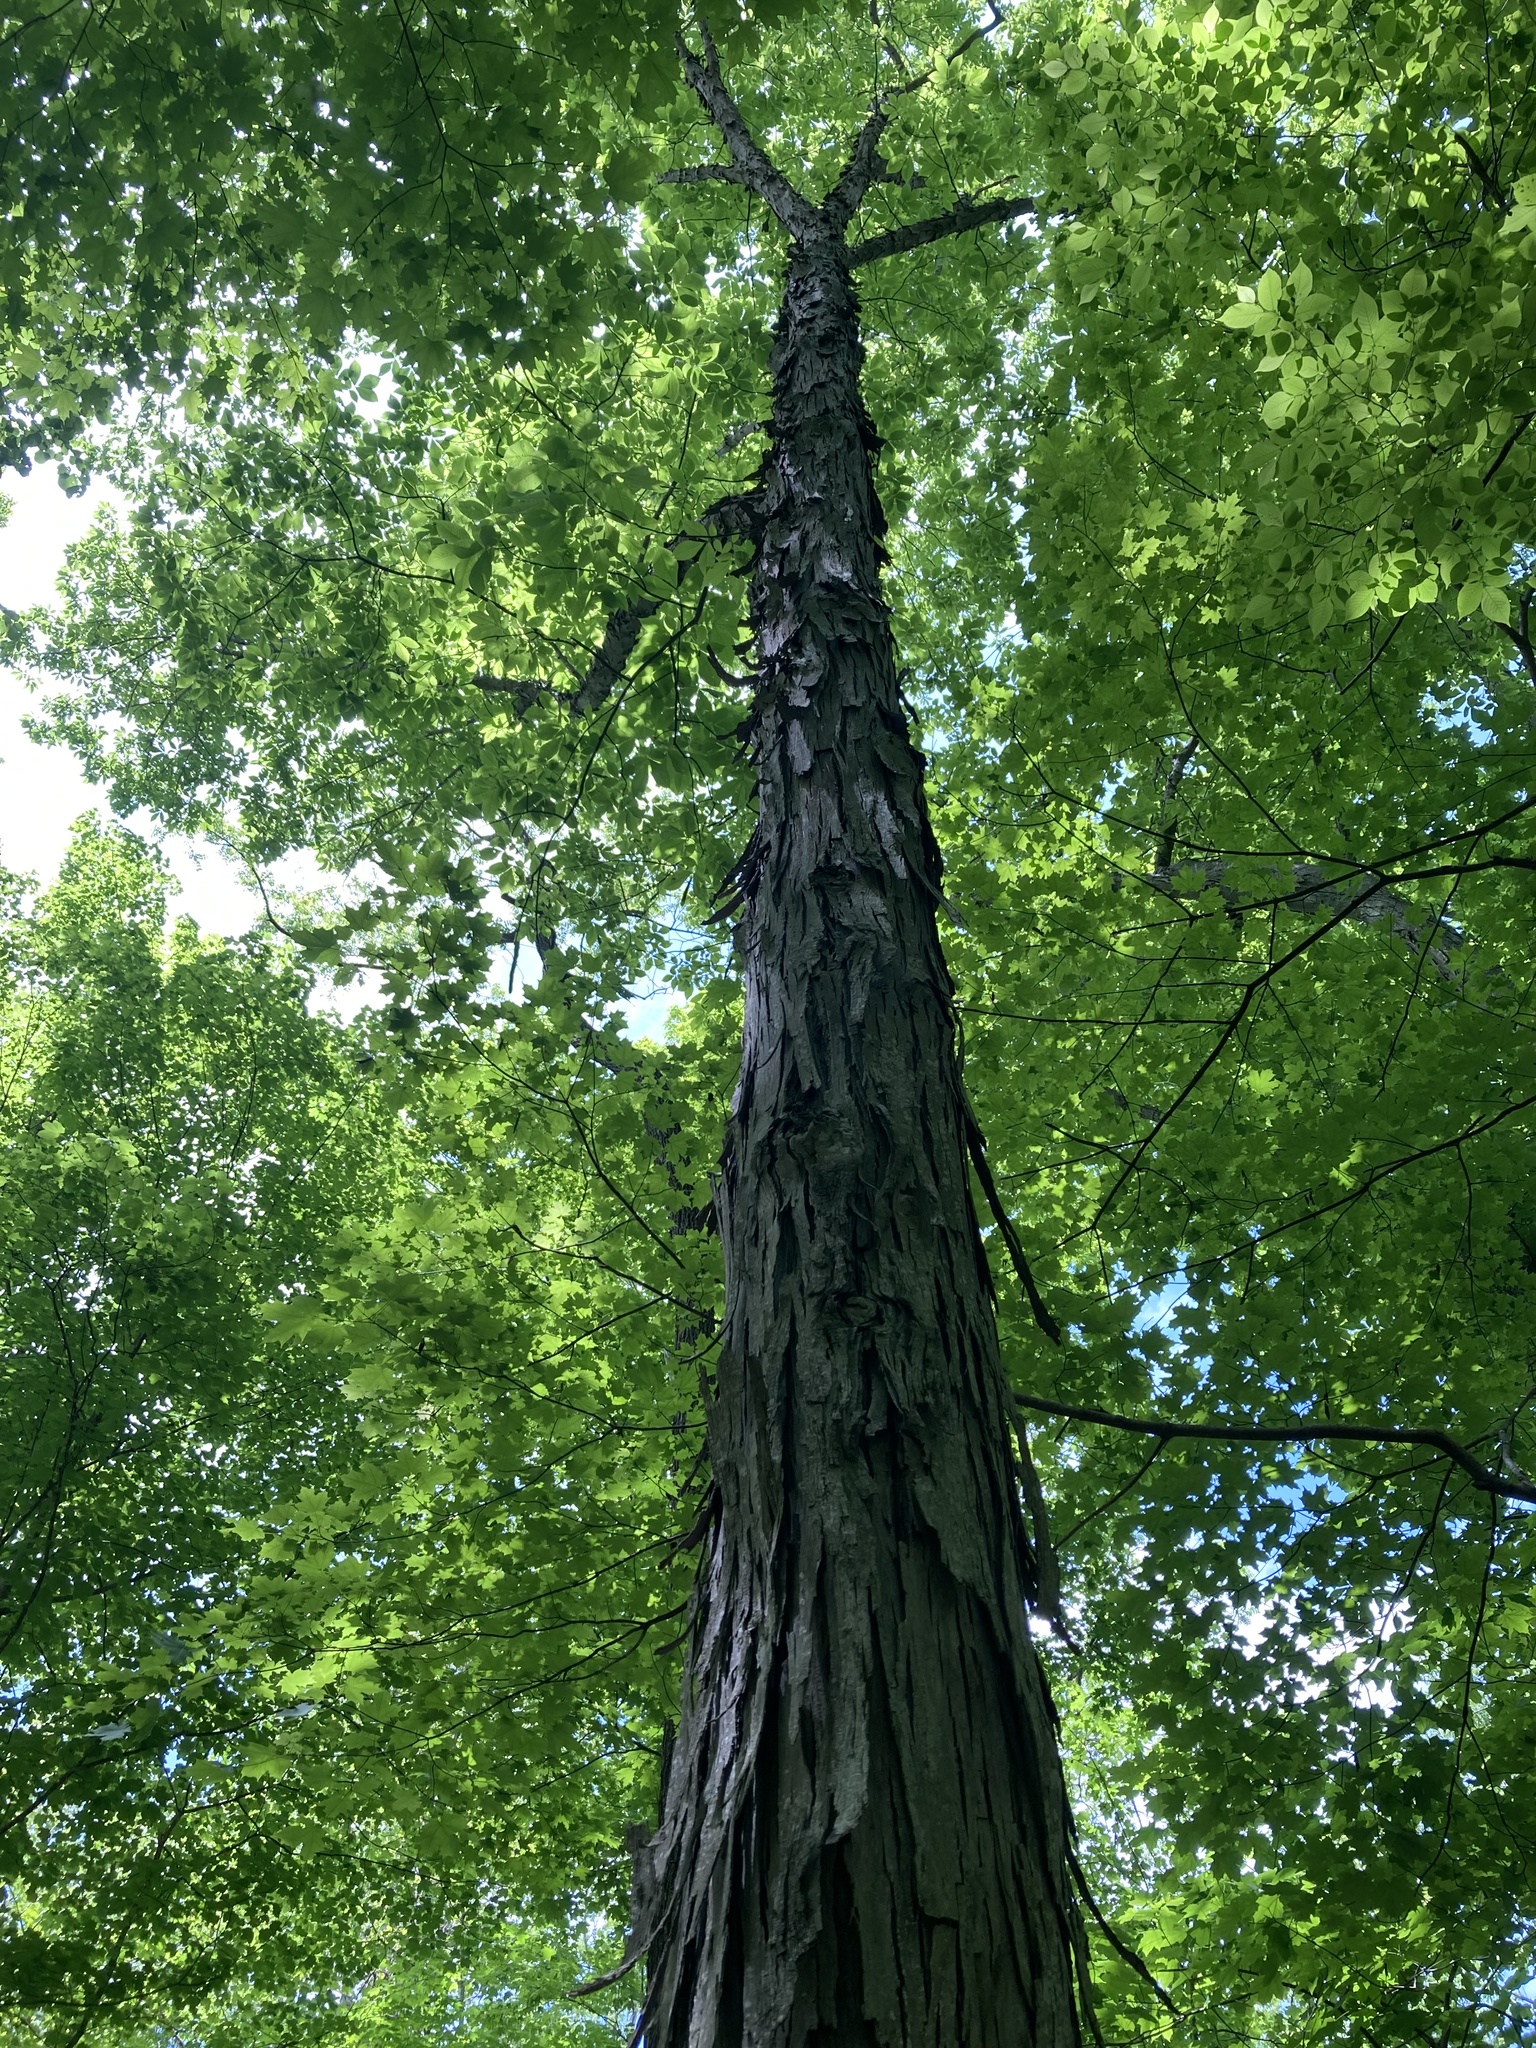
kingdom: Plantae
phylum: Tracheophyta
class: Magnoliopsida
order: Fagales
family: Juglandaceae
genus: Carya
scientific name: Carya ovata
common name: Shagbark hickory
